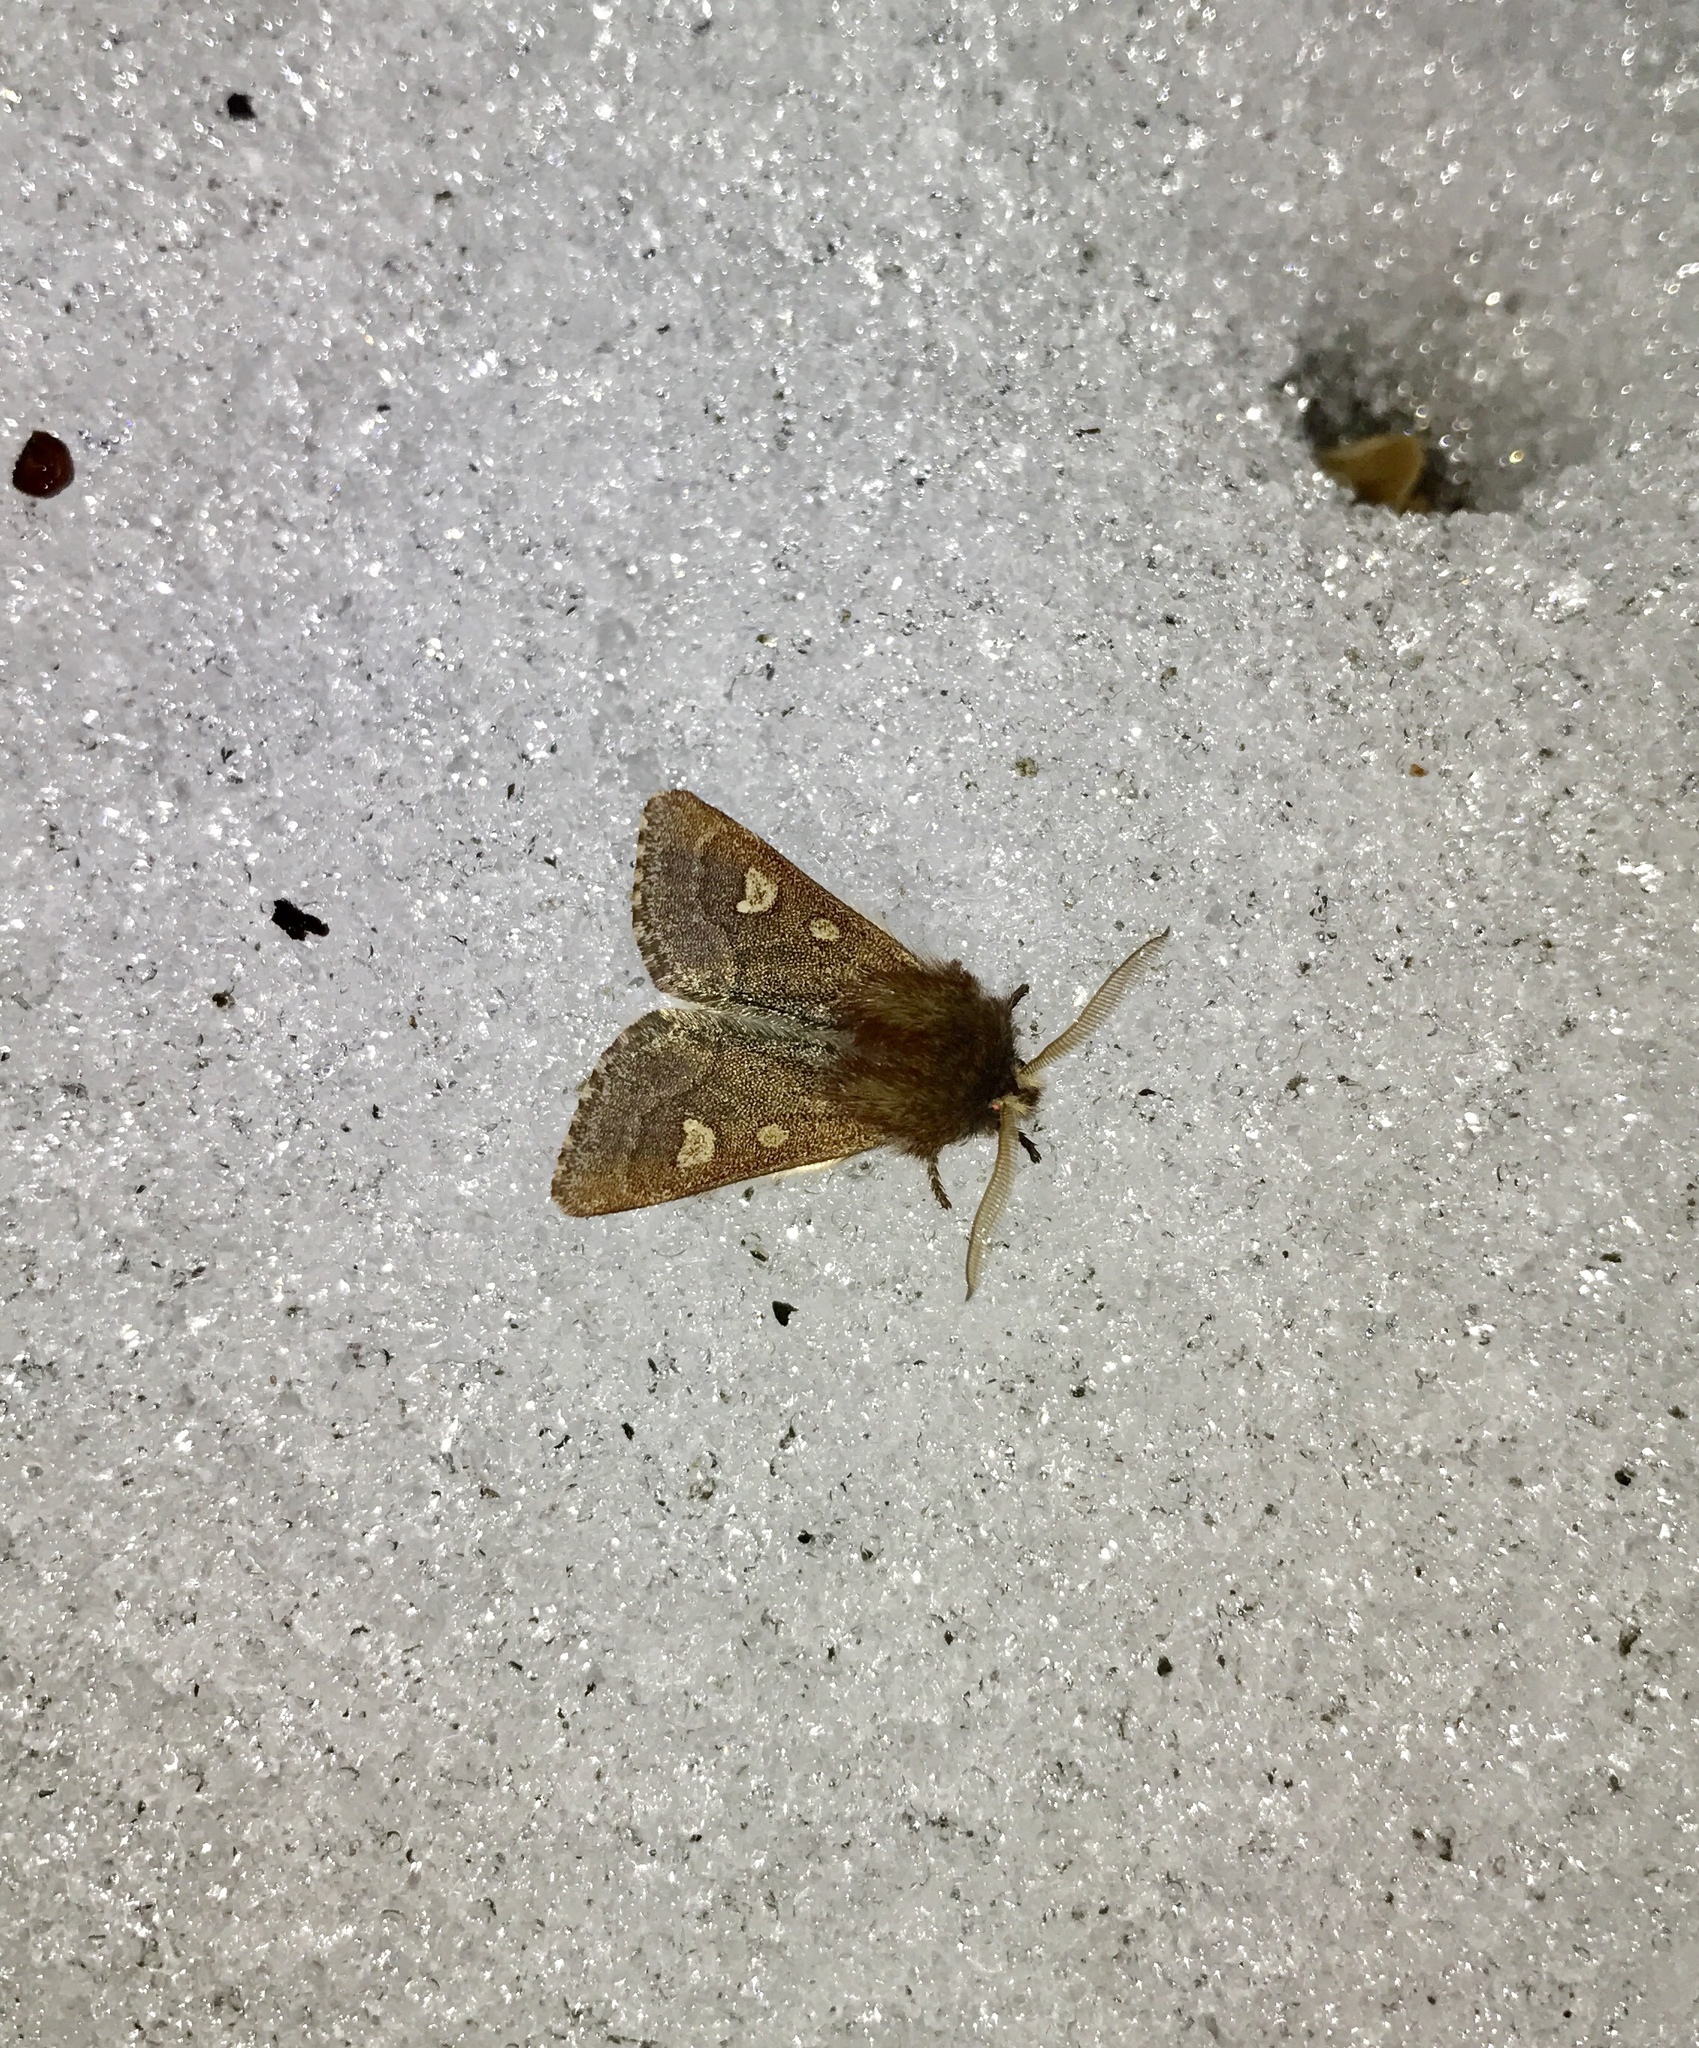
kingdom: Animalia
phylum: Arthropoda
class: Insecta
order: Lepidoptera
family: Noctuidae
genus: Psaphida
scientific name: Psaphida styracis
